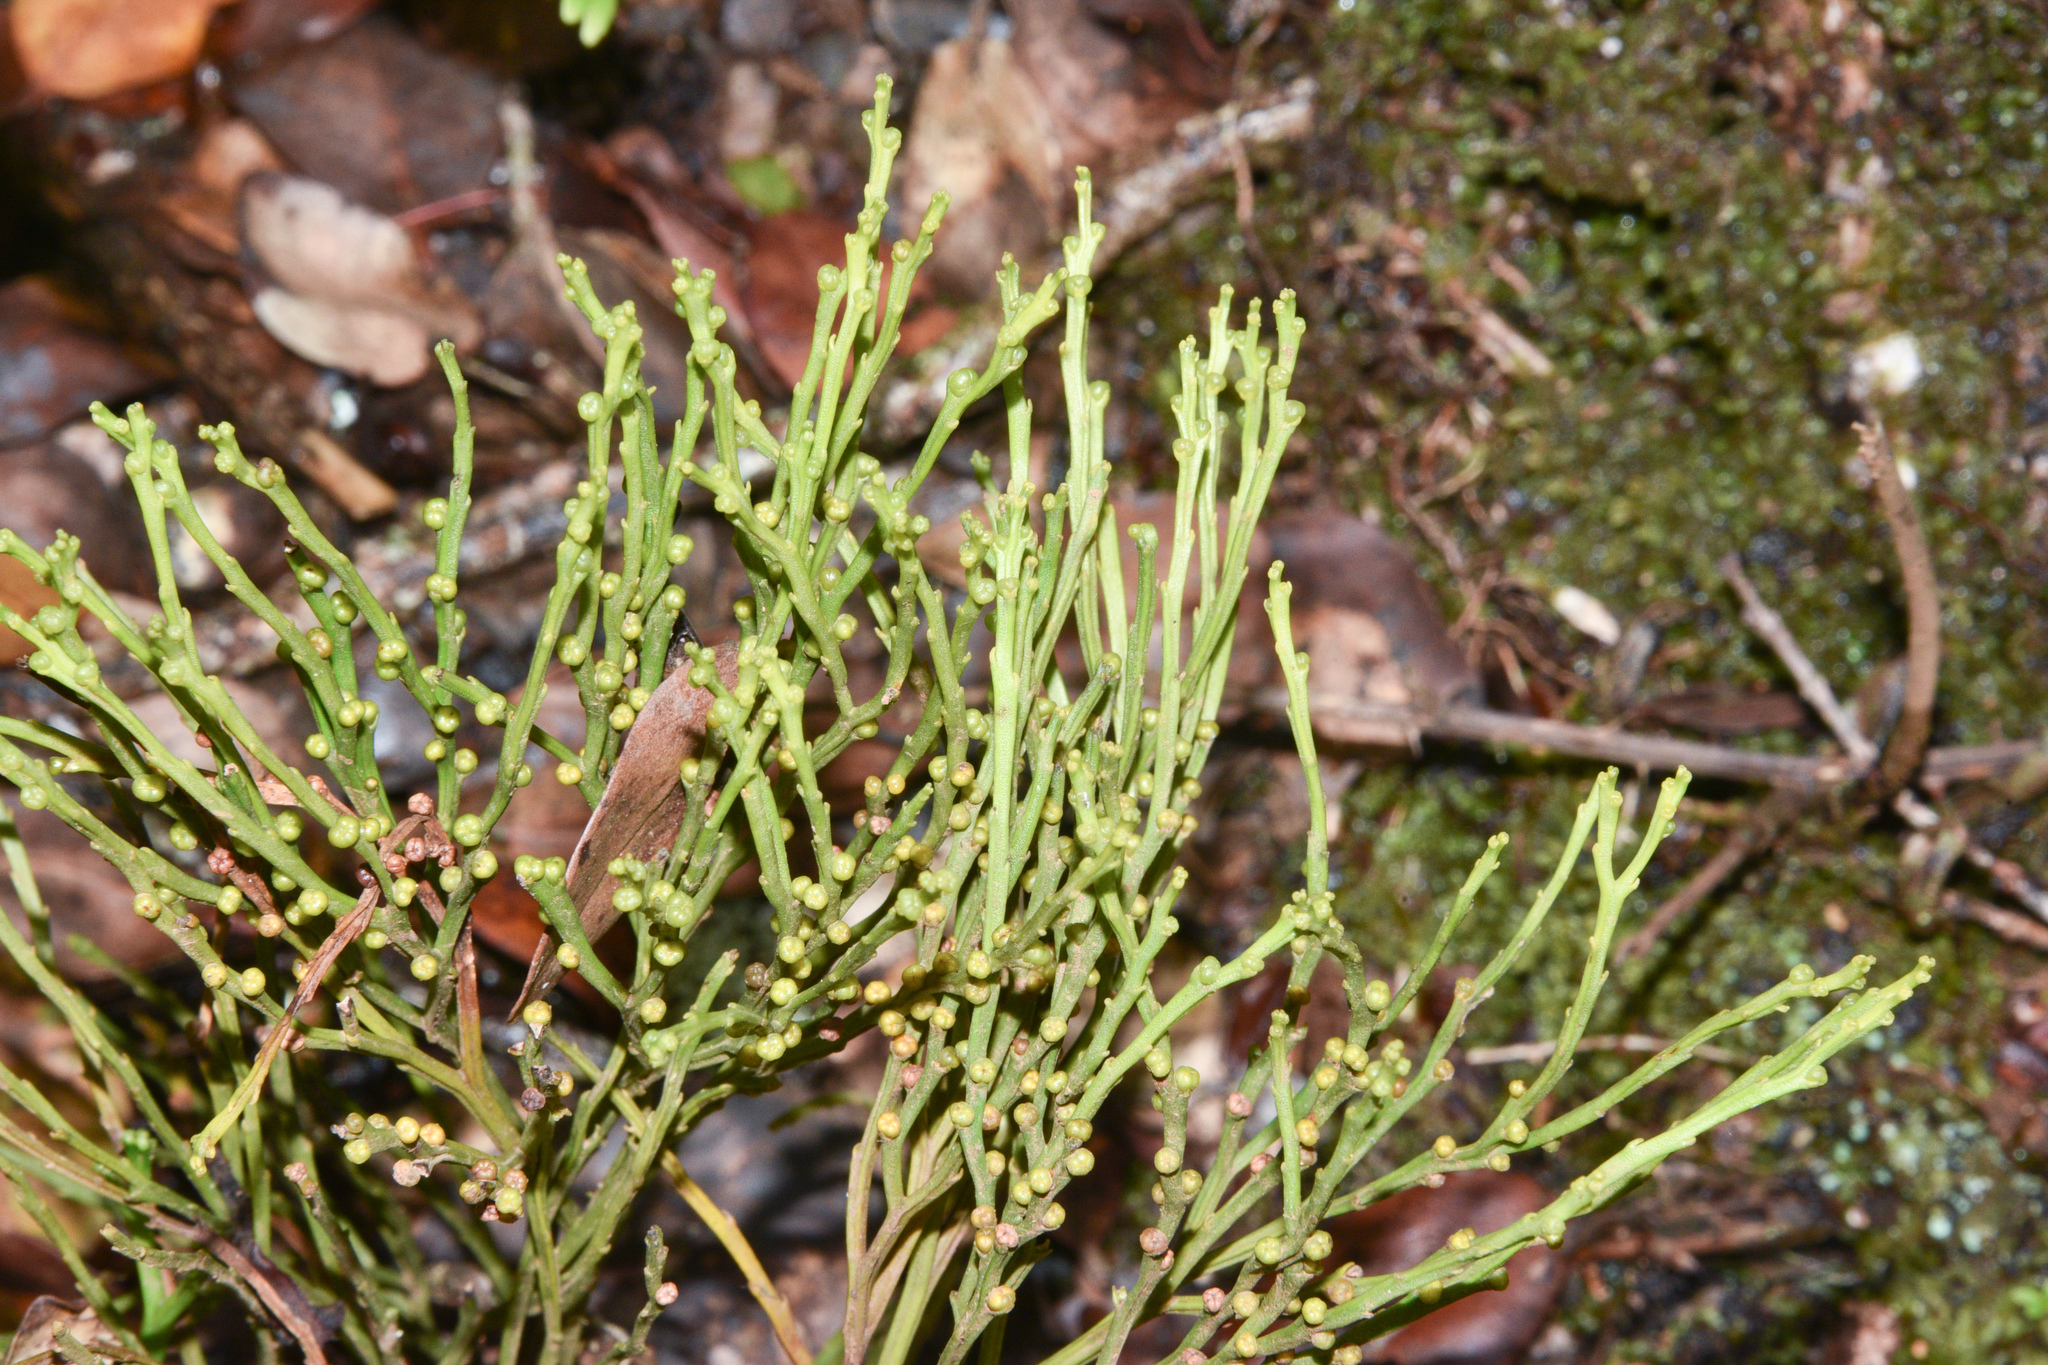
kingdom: Plantae
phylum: Tracheophyta
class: Polypodiopsida
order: Psilotales
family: Psilotaceae
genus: Psilotum
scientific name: Psilotum nudum
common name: Skeleton fork fern
